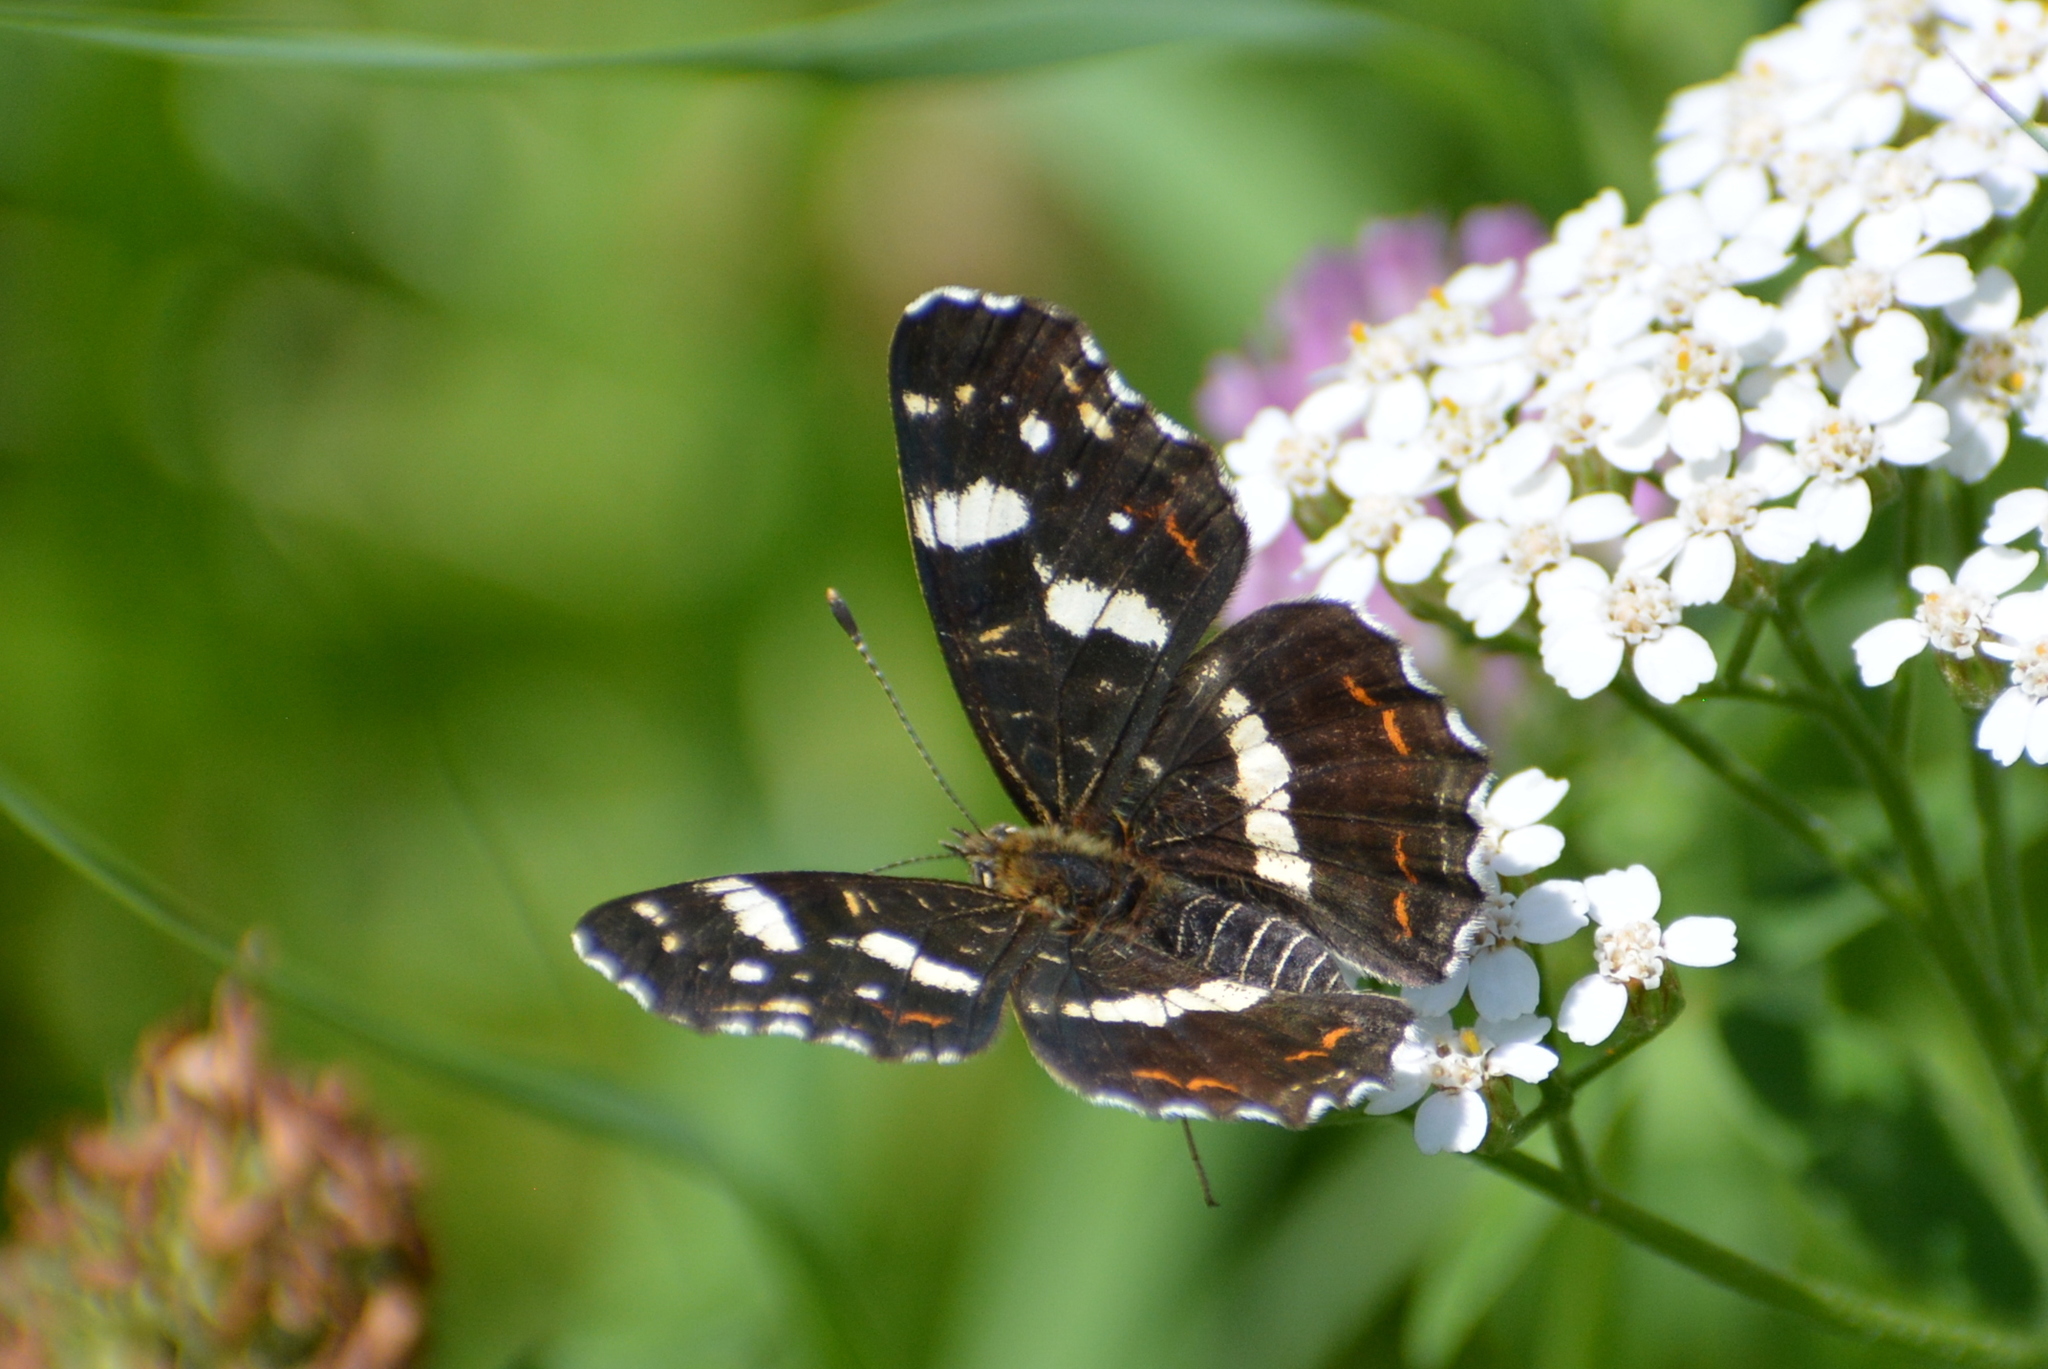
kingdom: Animalia
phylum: Arthropoda
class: Insecta
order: Lepidoptera
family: Nymphalidae
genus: Araschnia
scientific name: Araschnia levana
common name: Map butterfly
